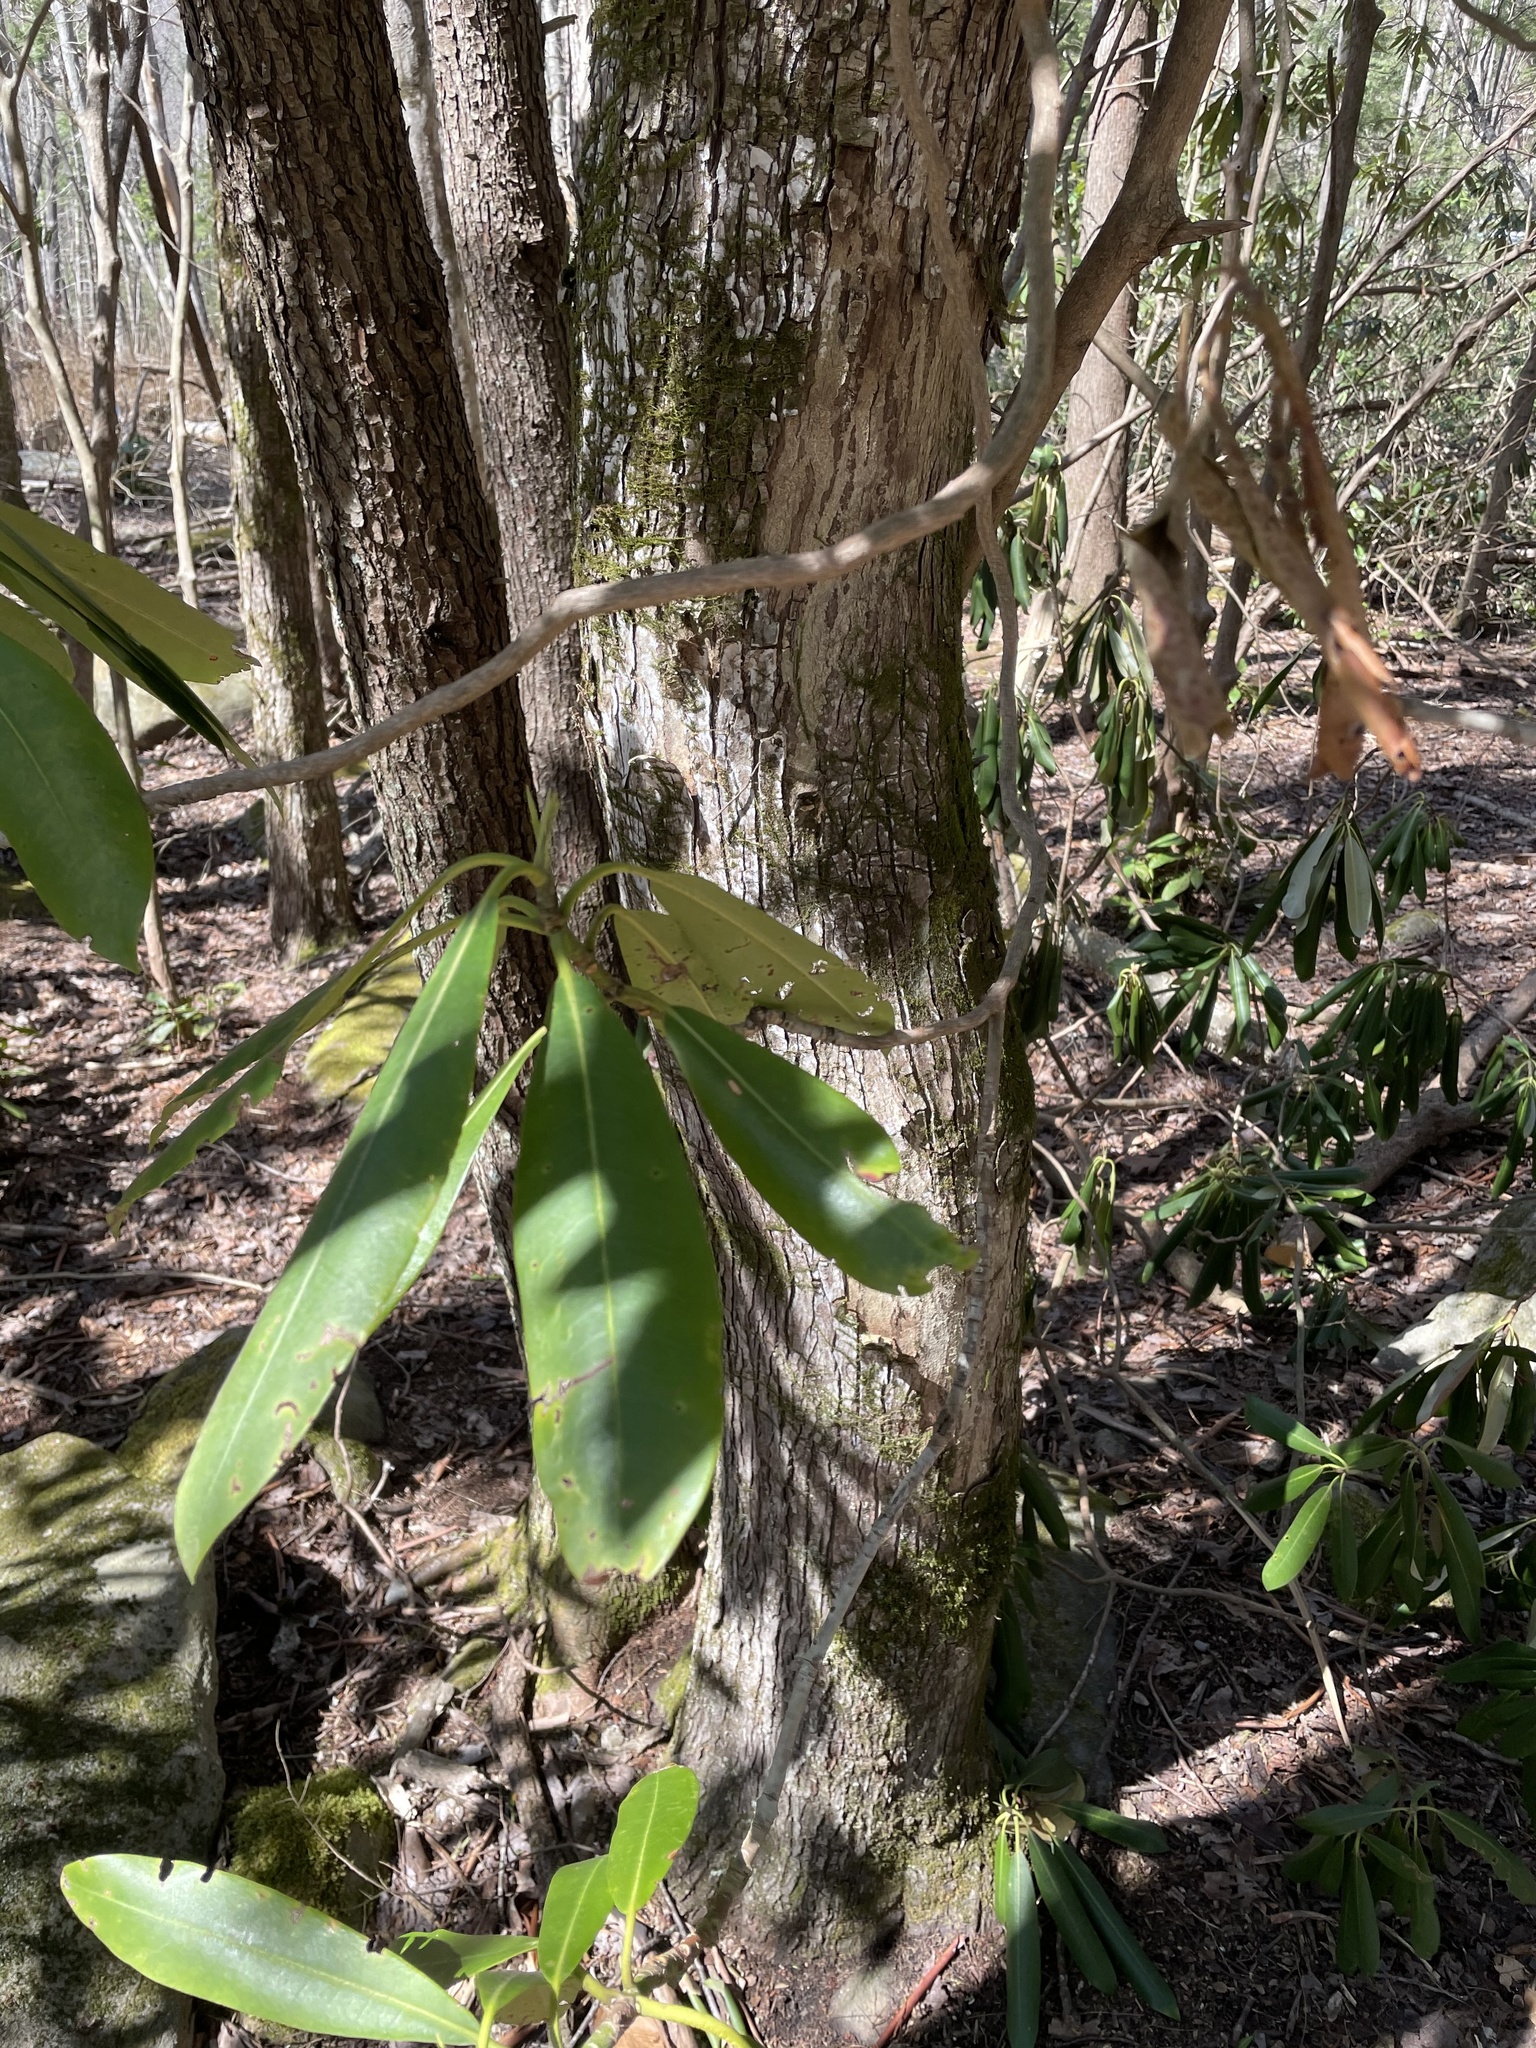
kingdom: Plantae
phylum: Tracheophyta
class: Magnoliopsida
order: Ericales
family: Ericaceae
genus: Rhododendron
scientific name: Rhododendron maximum
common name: Great rhododendron
